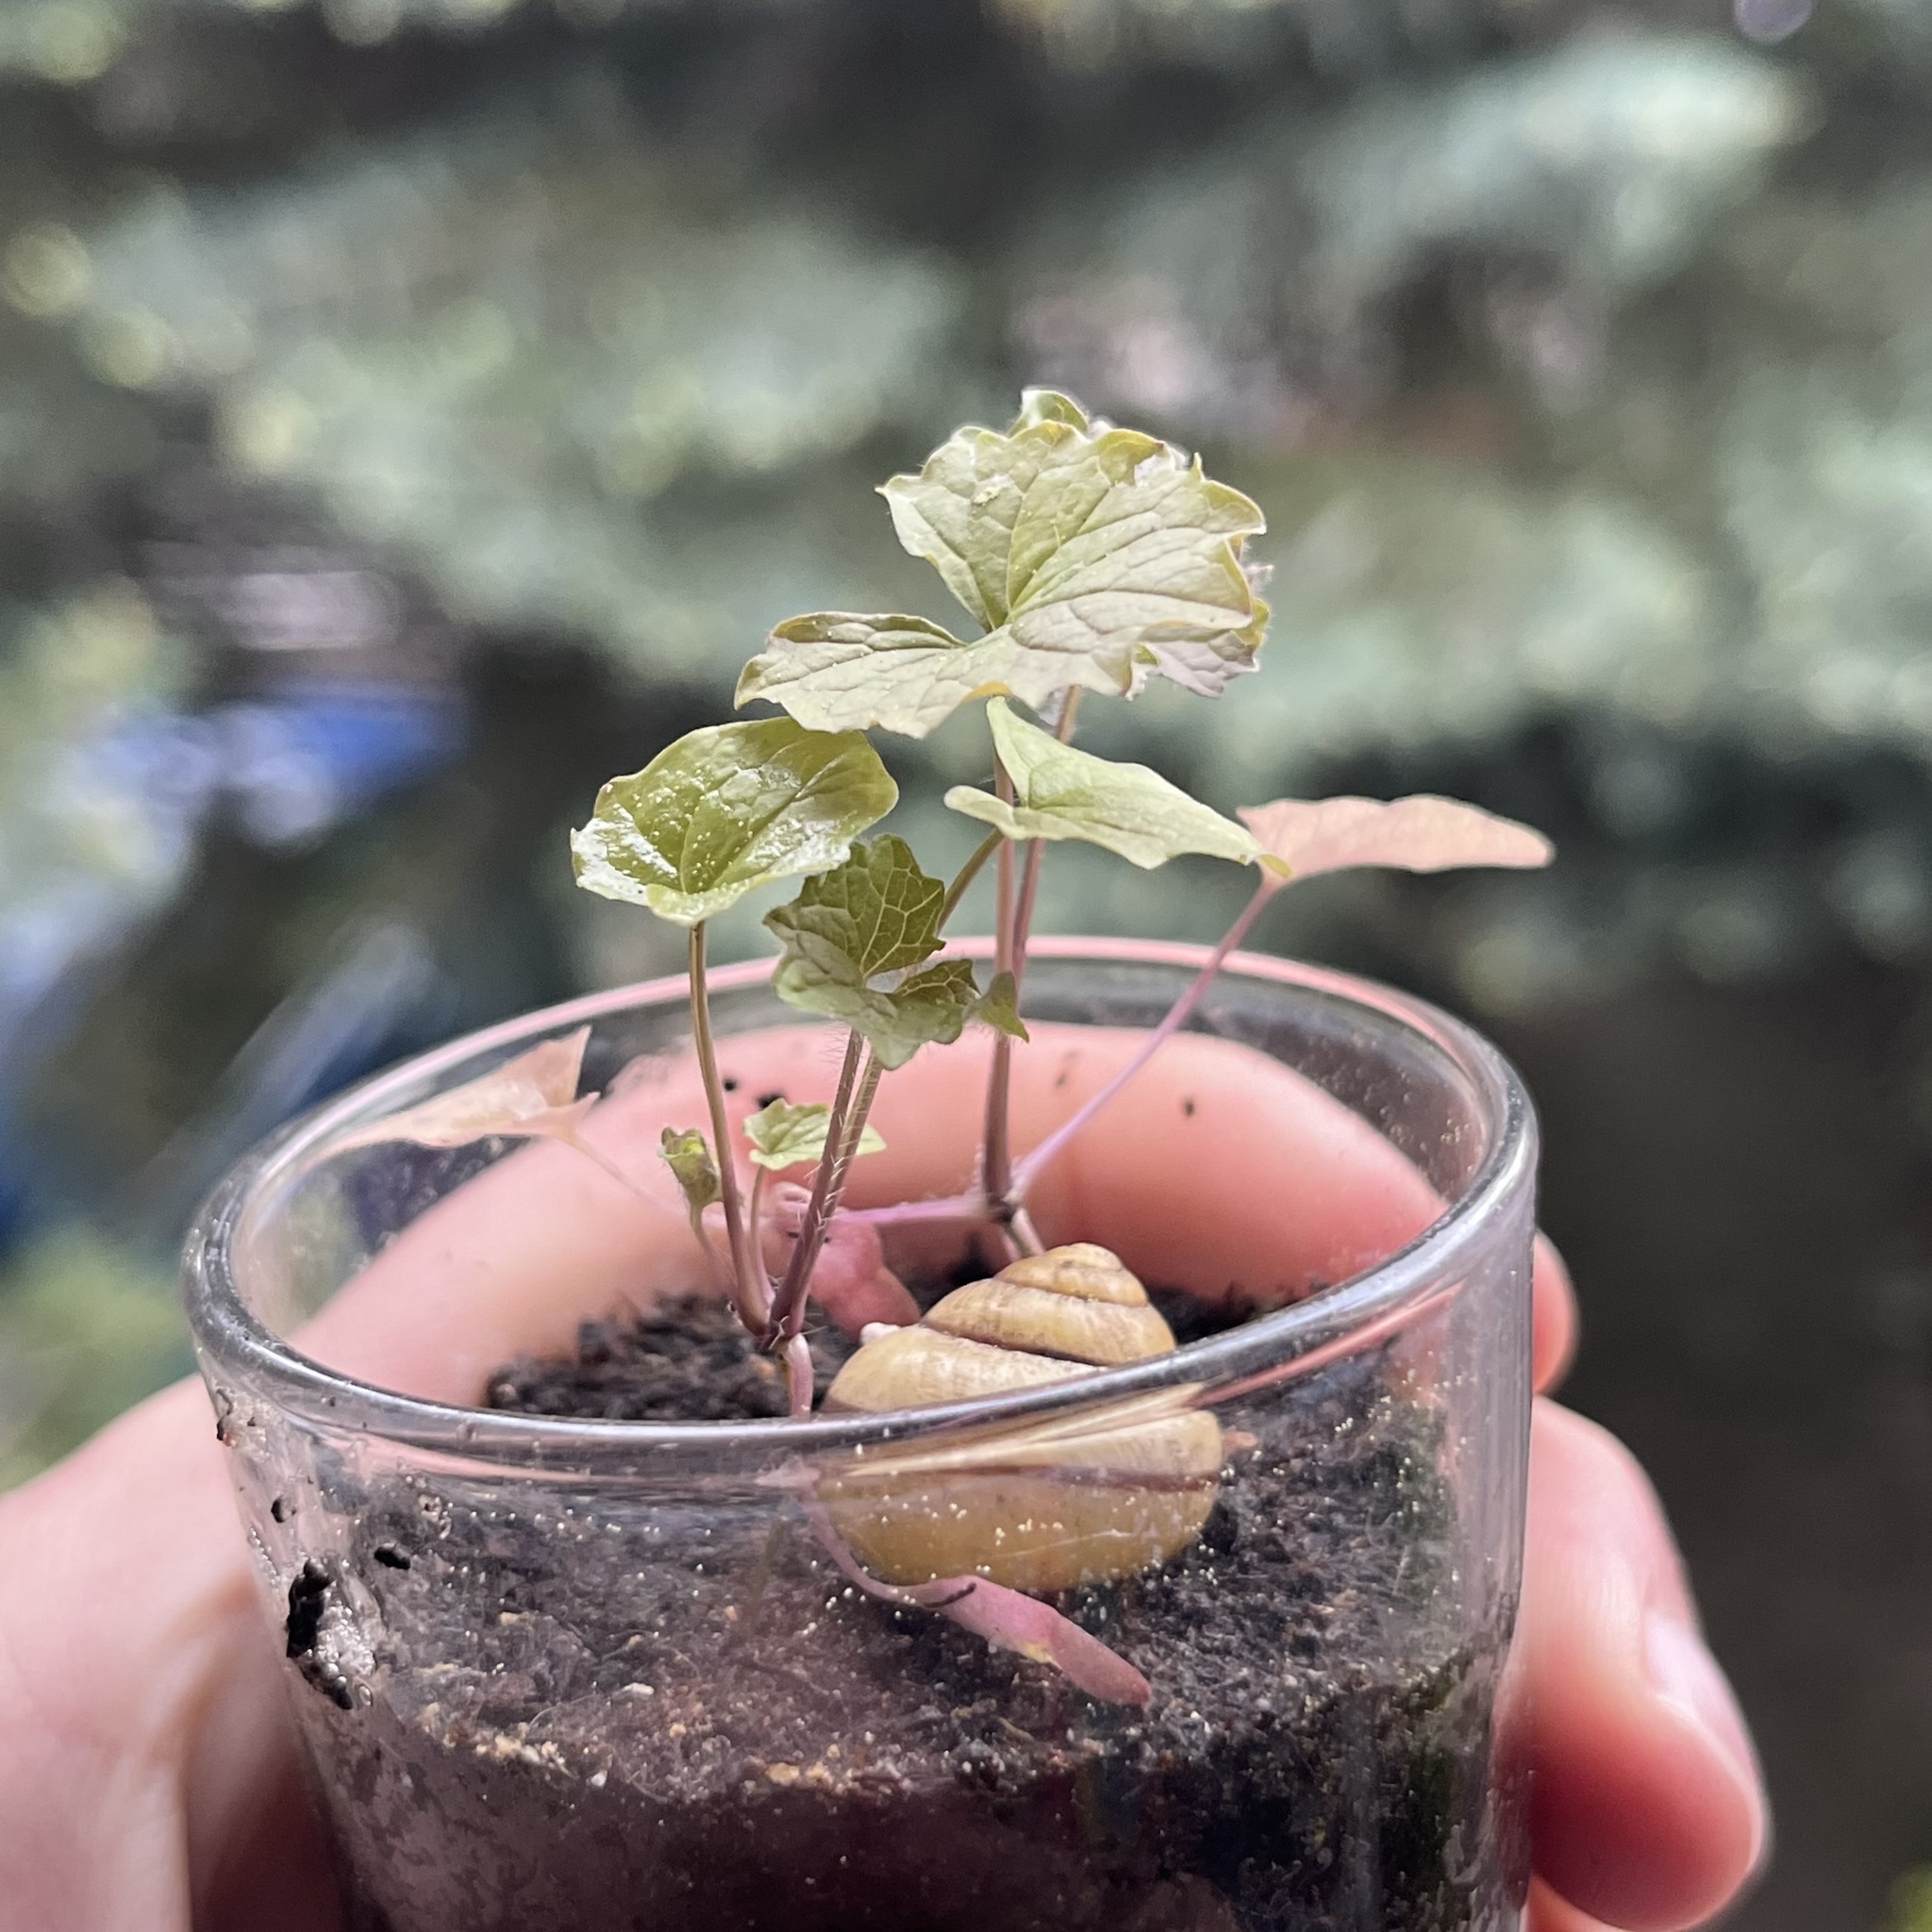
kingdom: Plantae
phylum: Tracheophyta
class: Magnoliopsida
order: Brassicales
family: Brassicaceae
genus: Alliaria
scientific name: Alliaria petiolata
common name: Garlic mustard
